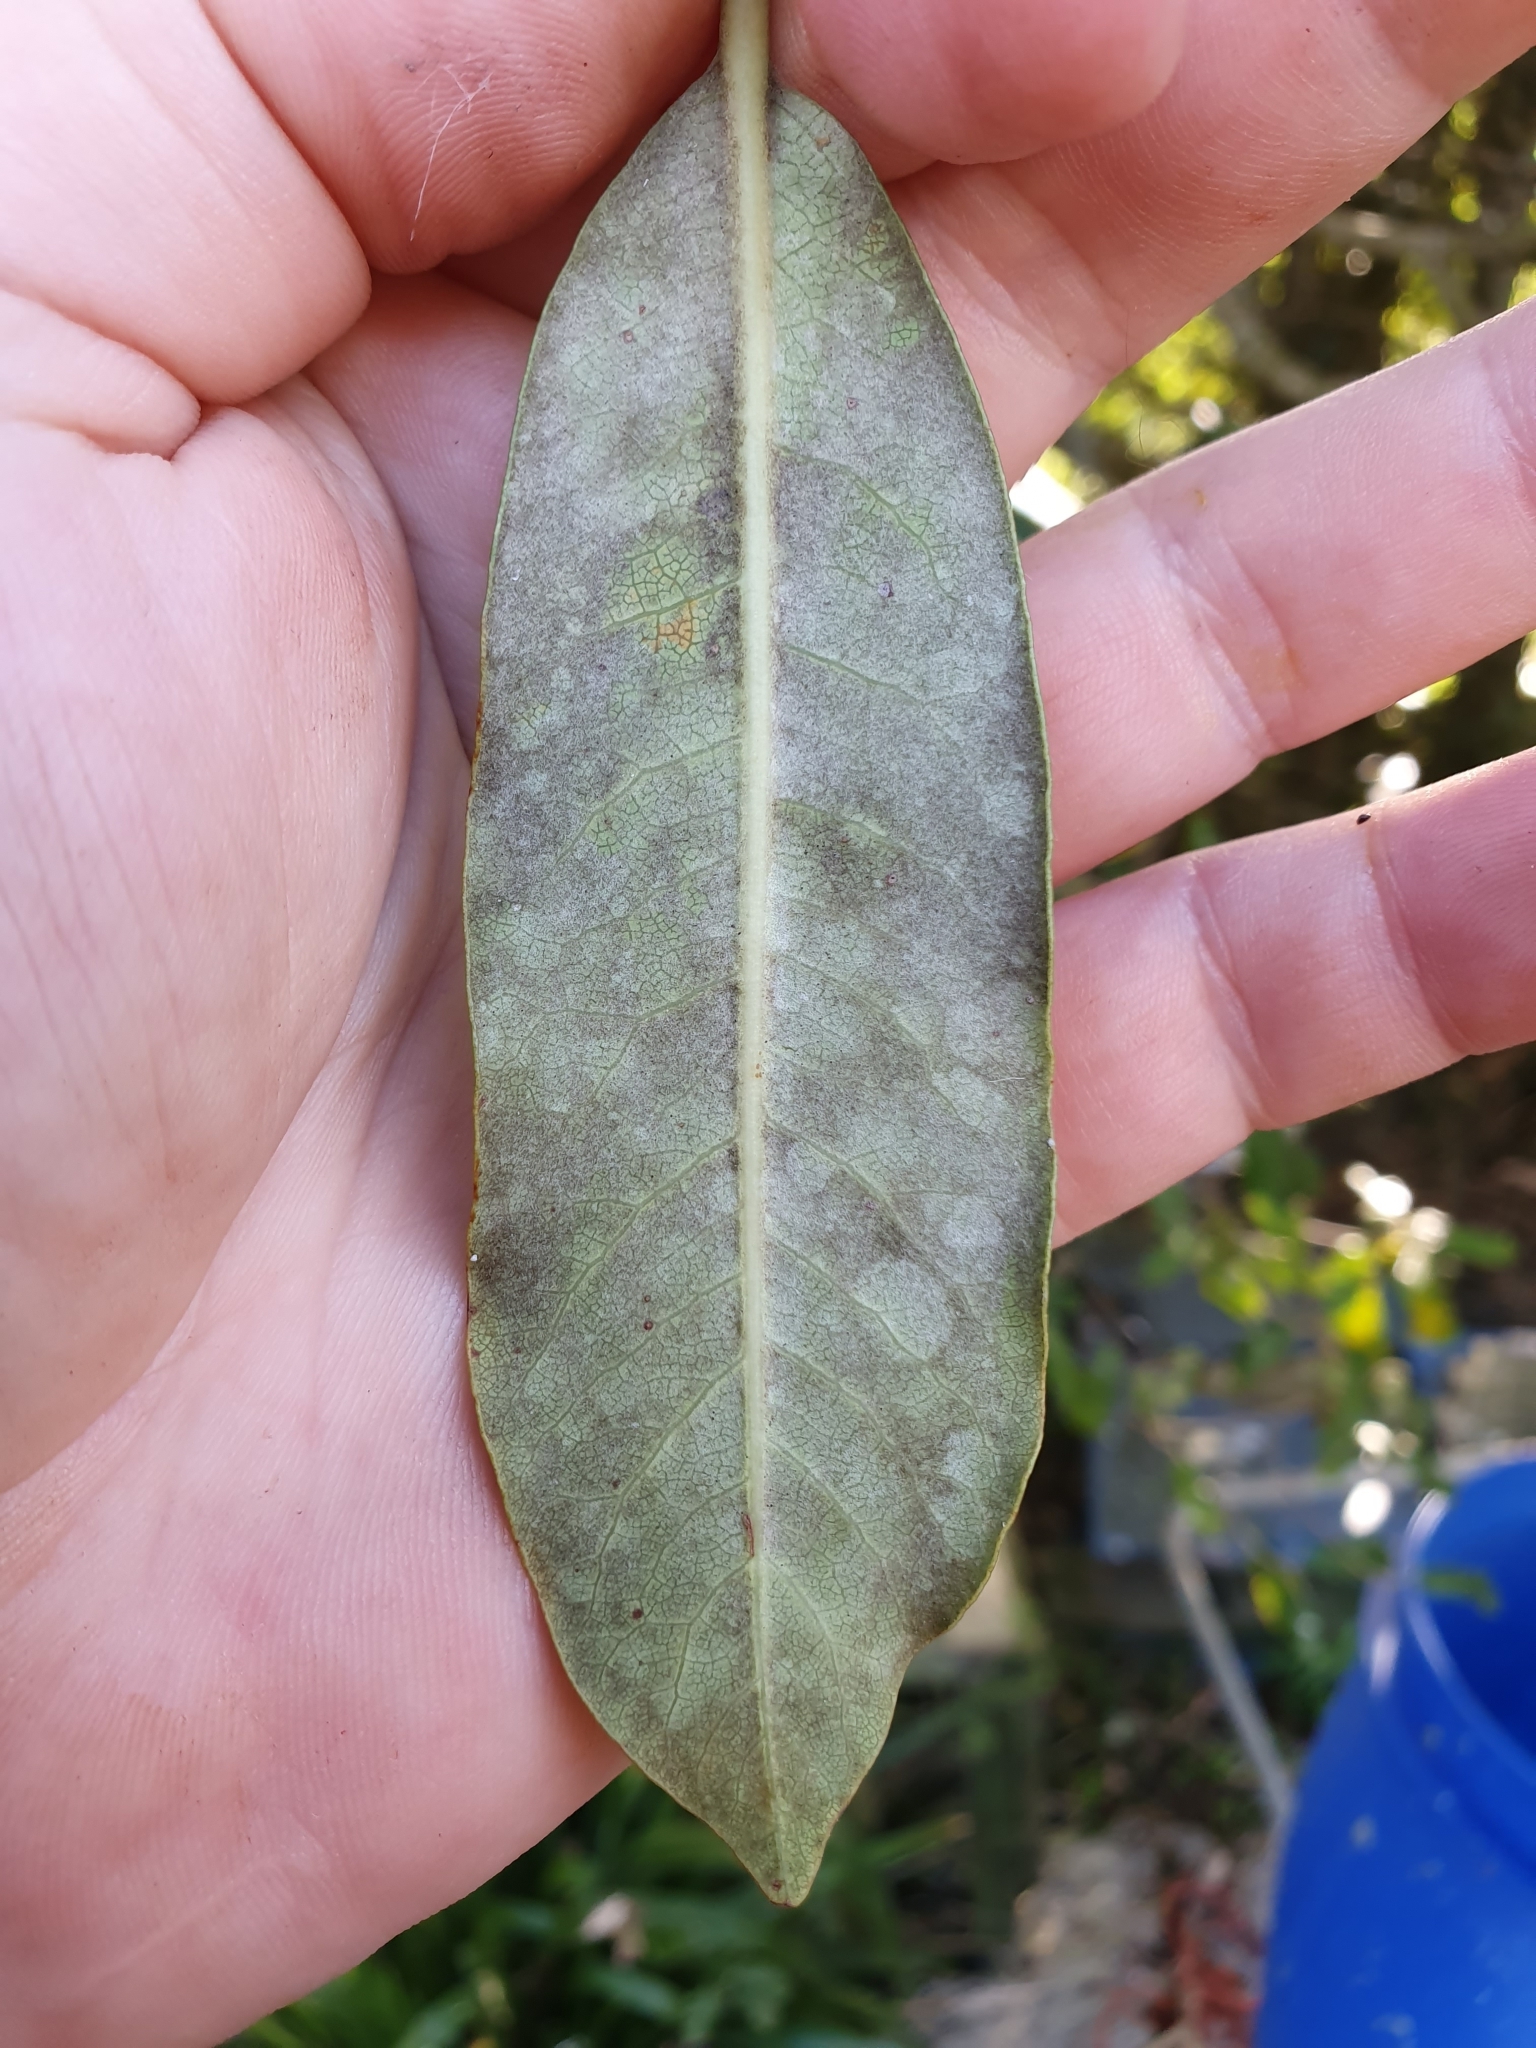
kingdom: Plantae
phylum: Tracheophyta
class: Magnoliopsida
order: Apiales
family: Pittosporaceae
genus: Pittosporum
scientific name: Pittosporum ralphii
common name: Ralph's desertwillow
